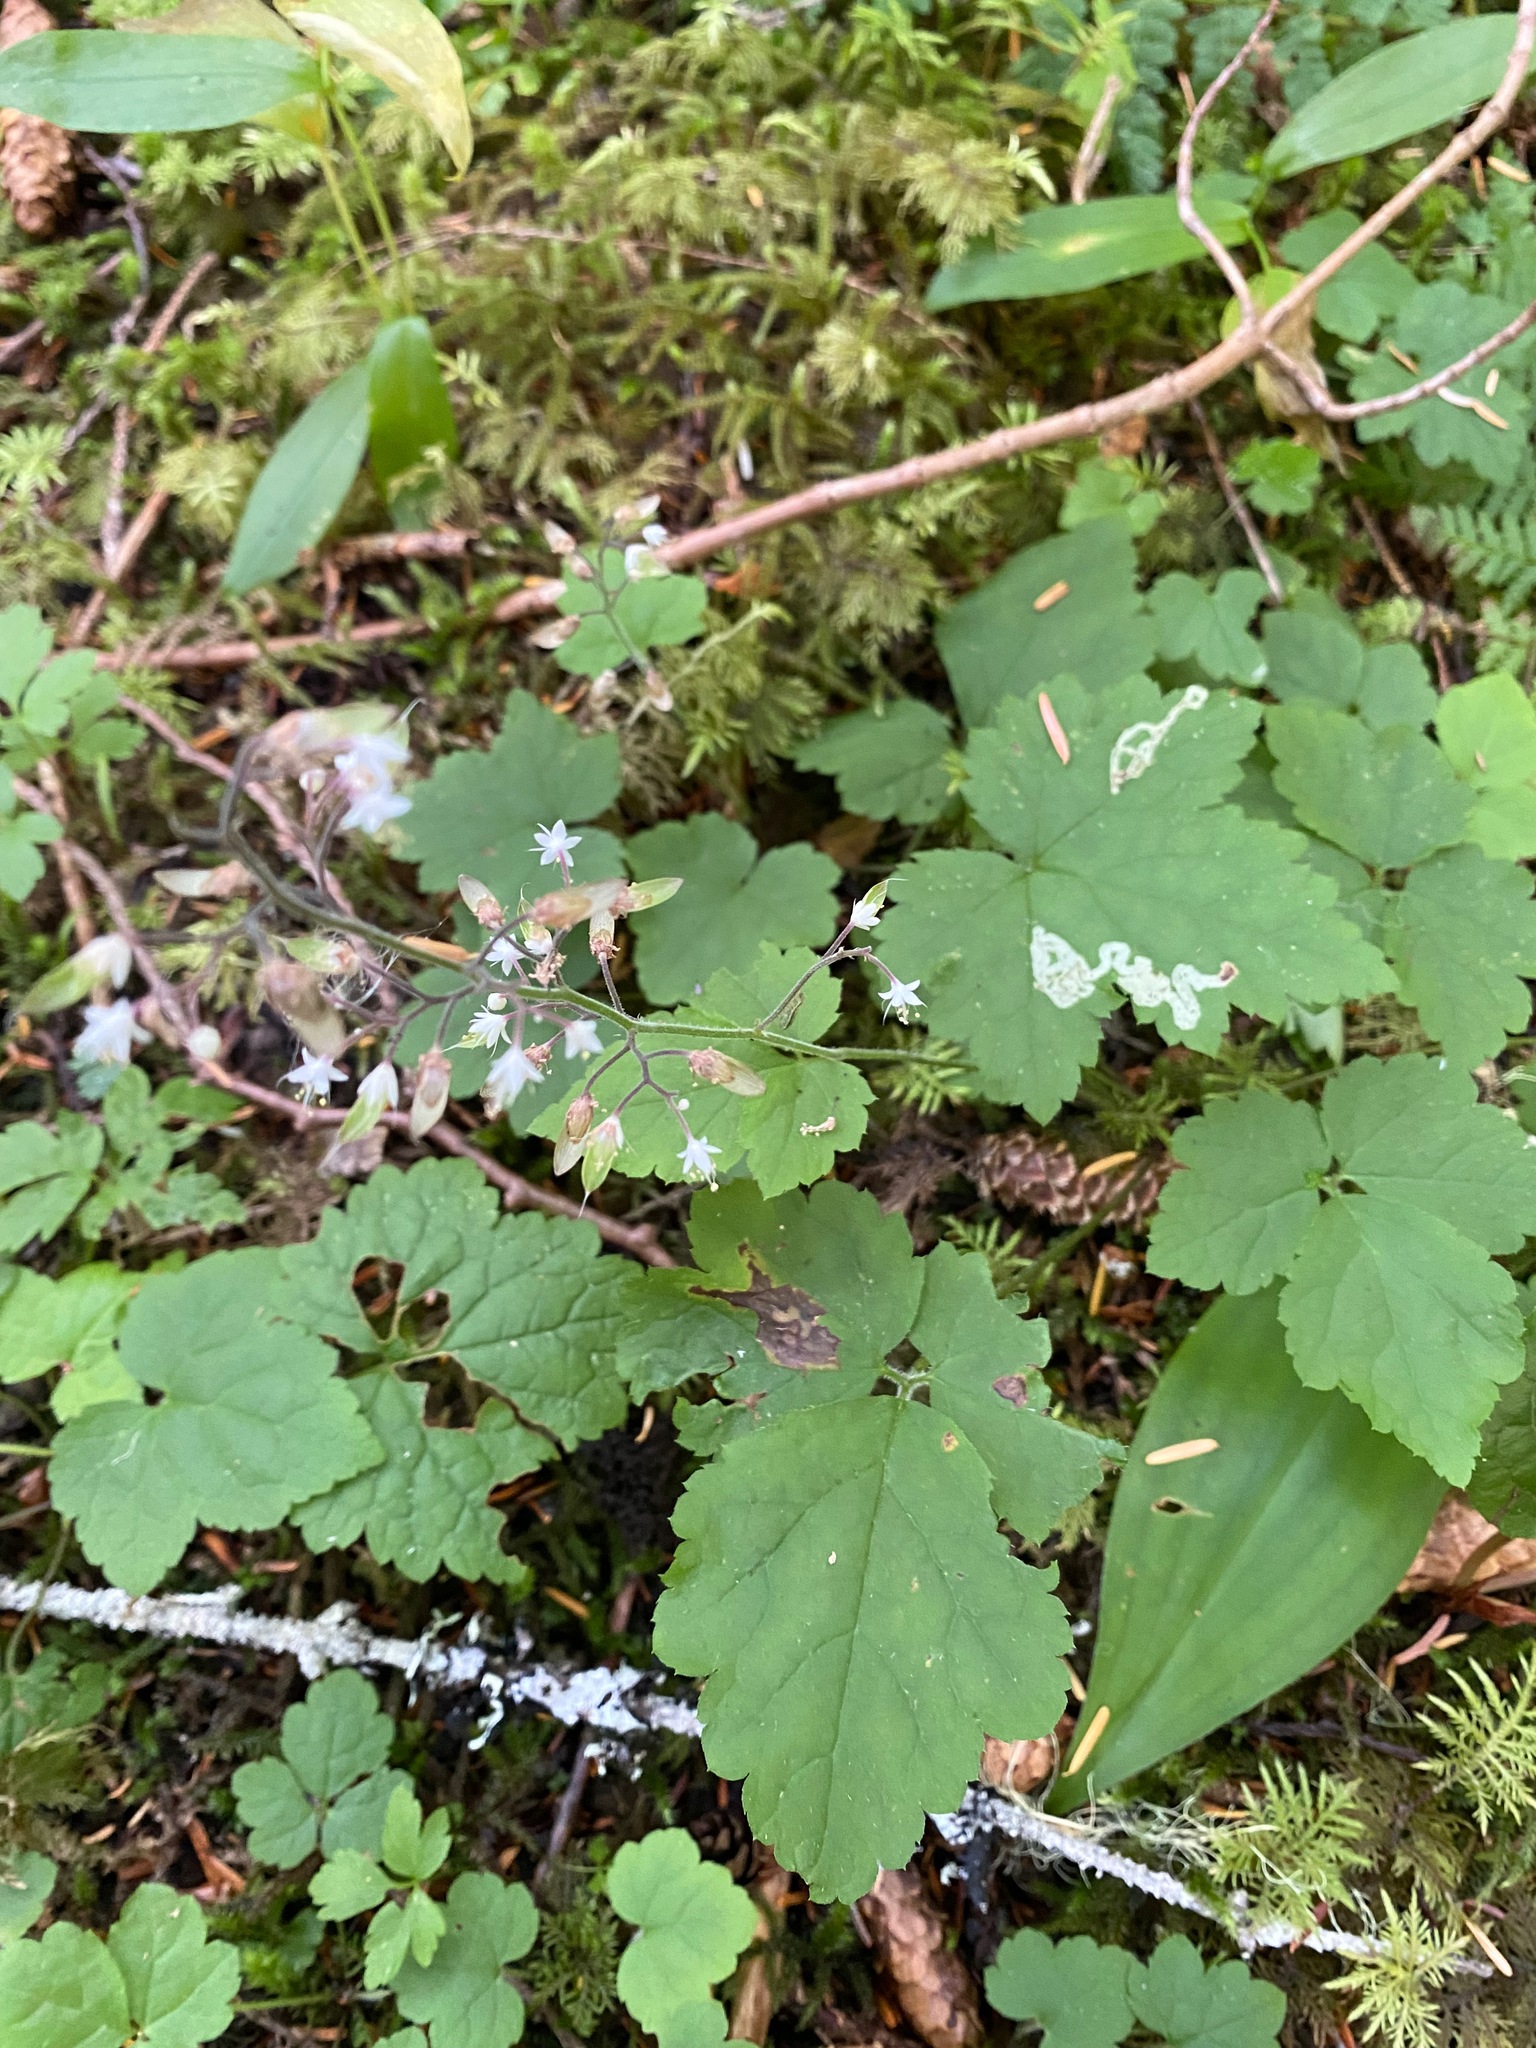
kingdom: Plantae
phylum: Tracheophyta
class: Magnoliopsida
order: Saxifragales
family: Saxifragaceae
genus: Tiarella
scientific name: Tiarella trifoliata
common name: Sugar-scoop
